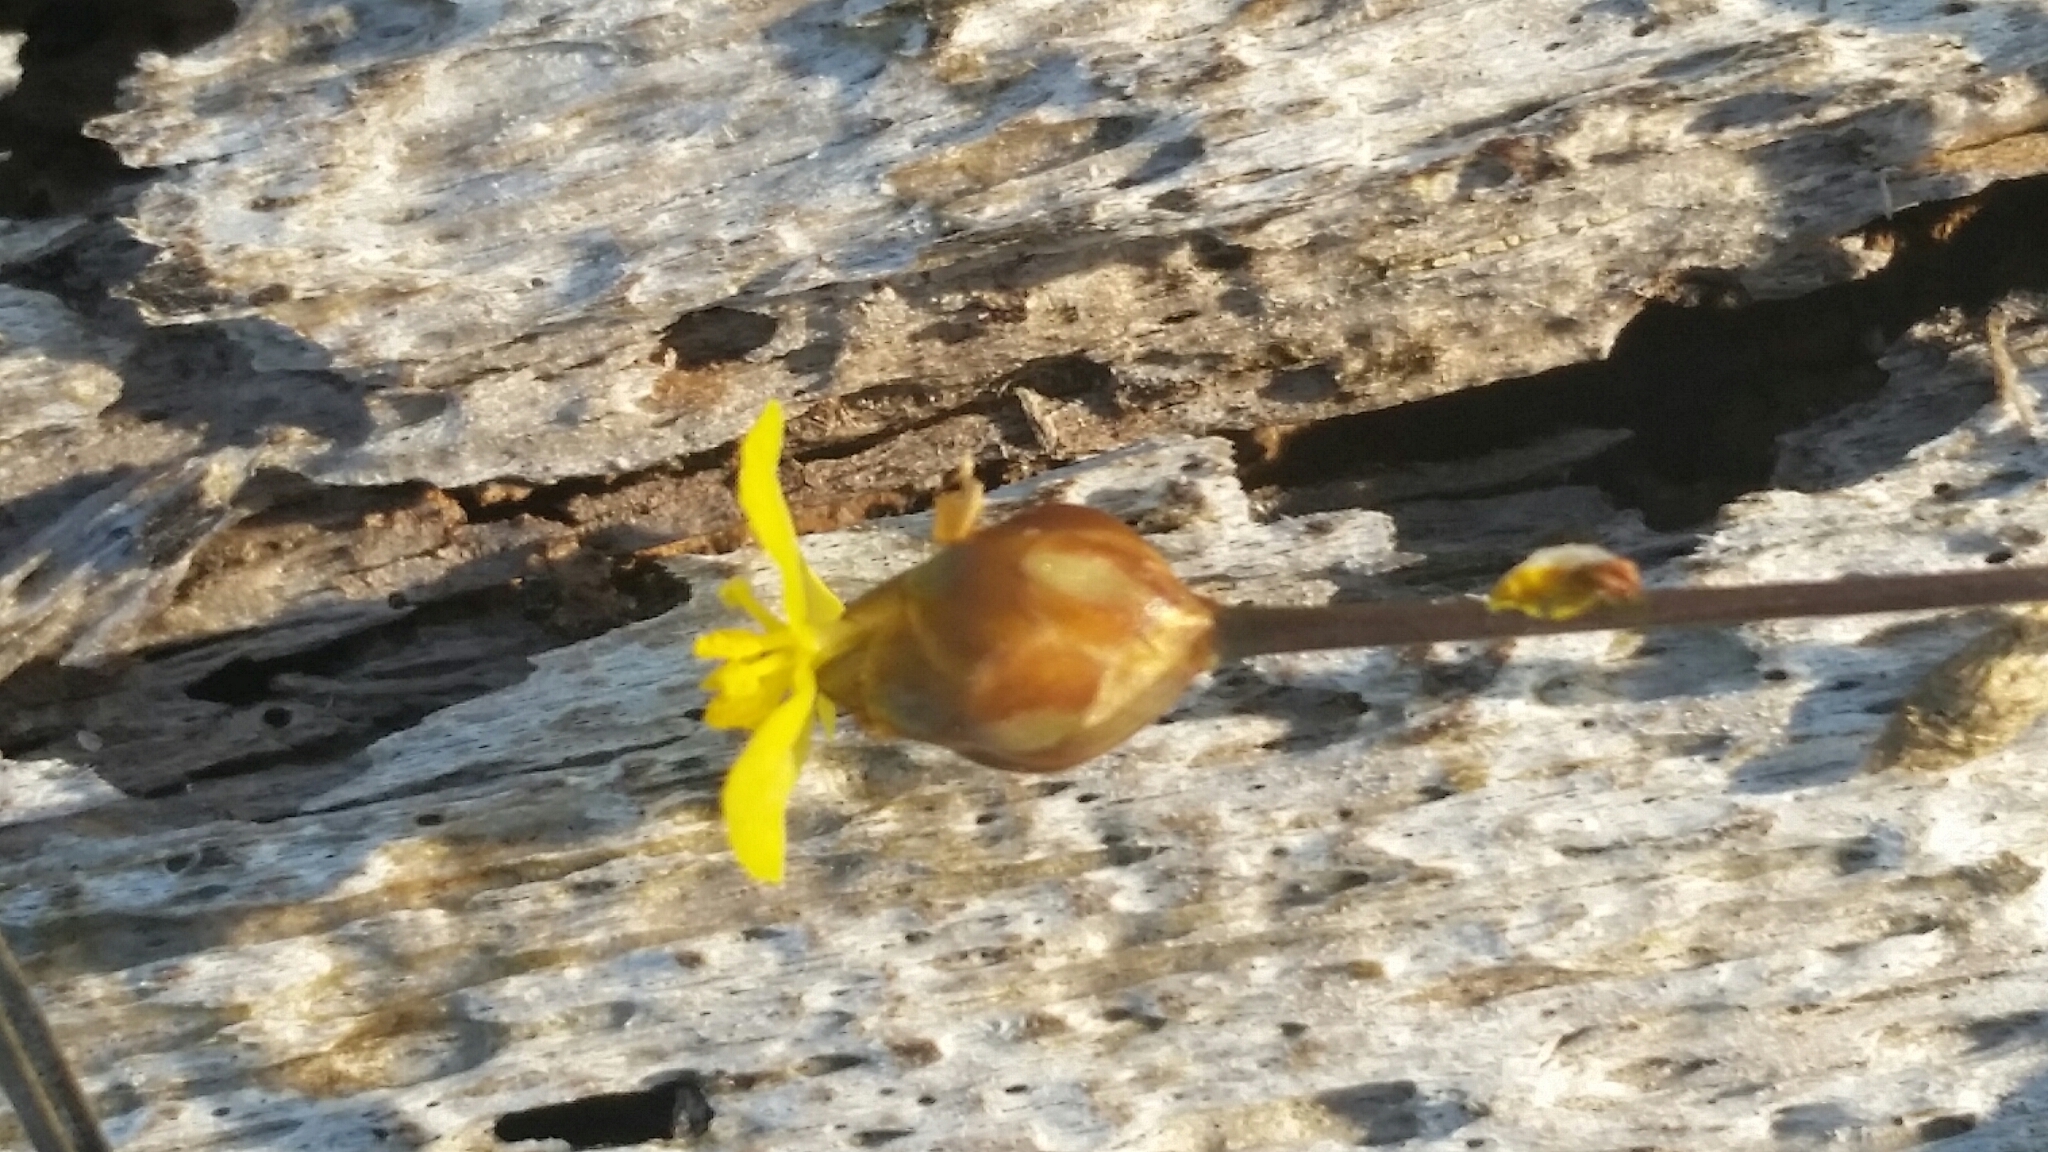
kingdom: Plantae
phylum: Tracheophyta
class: Liliopsida
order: Poales
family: Xyridaceae
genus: Xyris
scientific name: Xyris flabelliformis
